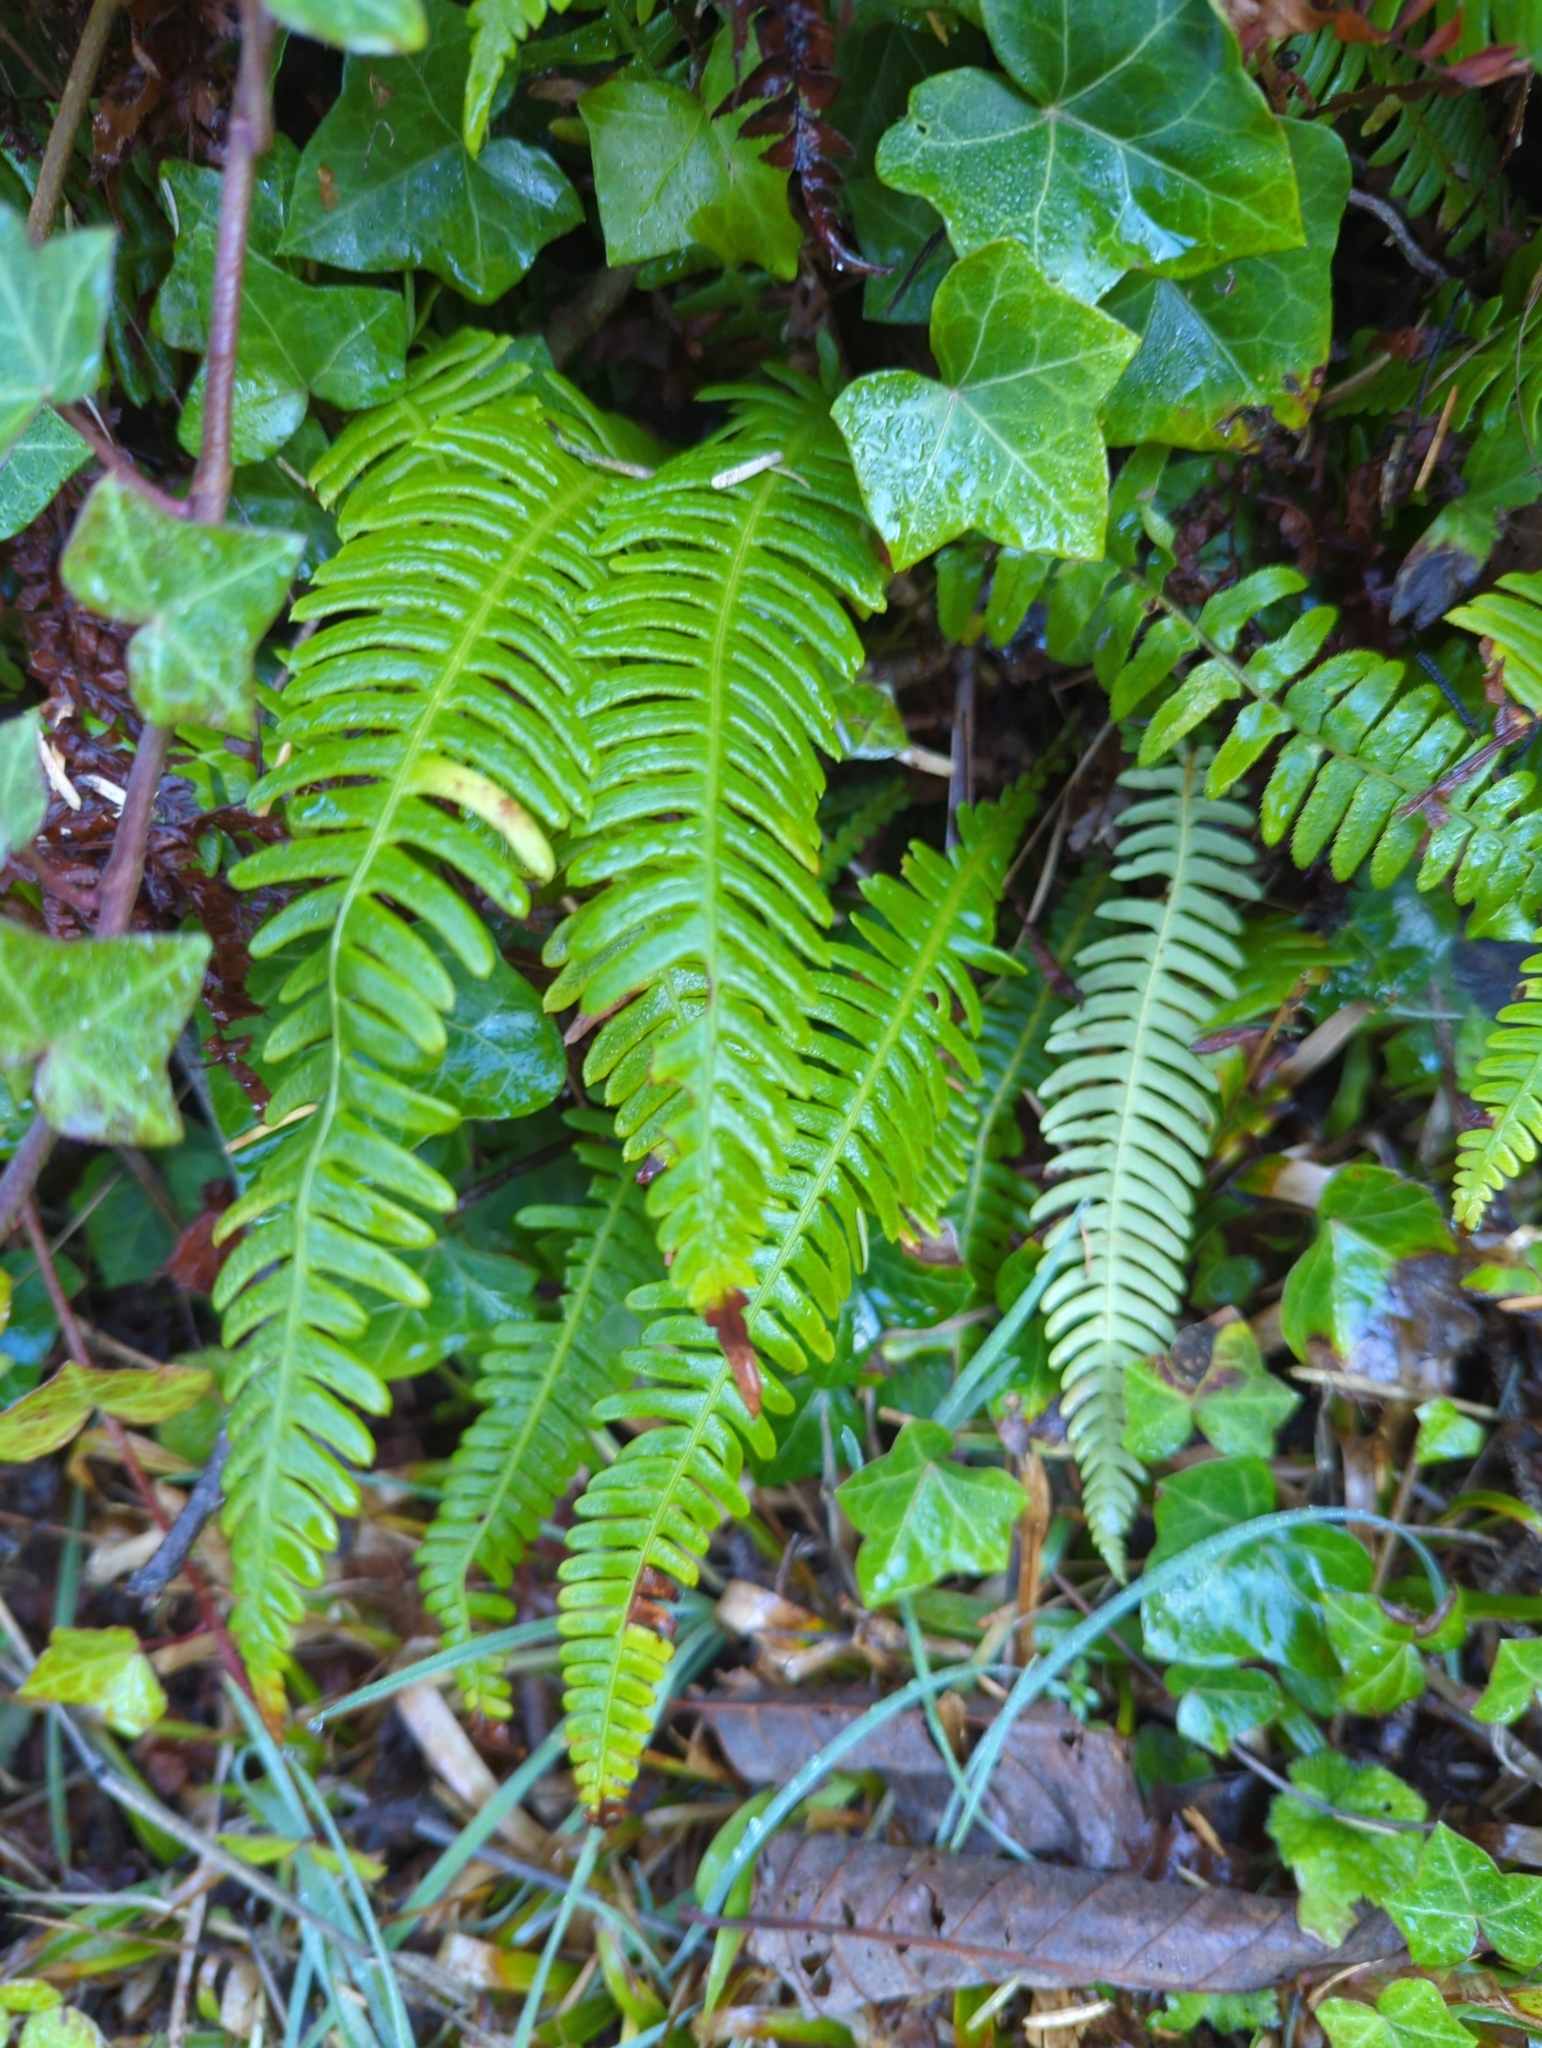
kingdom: Plantae
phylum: Tracheophyta
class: Polypodiopsida
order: Polypodiales
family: Blechnaceae
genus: Struthiopteris
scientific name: Struthiopteris spicant
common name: Deer fern
